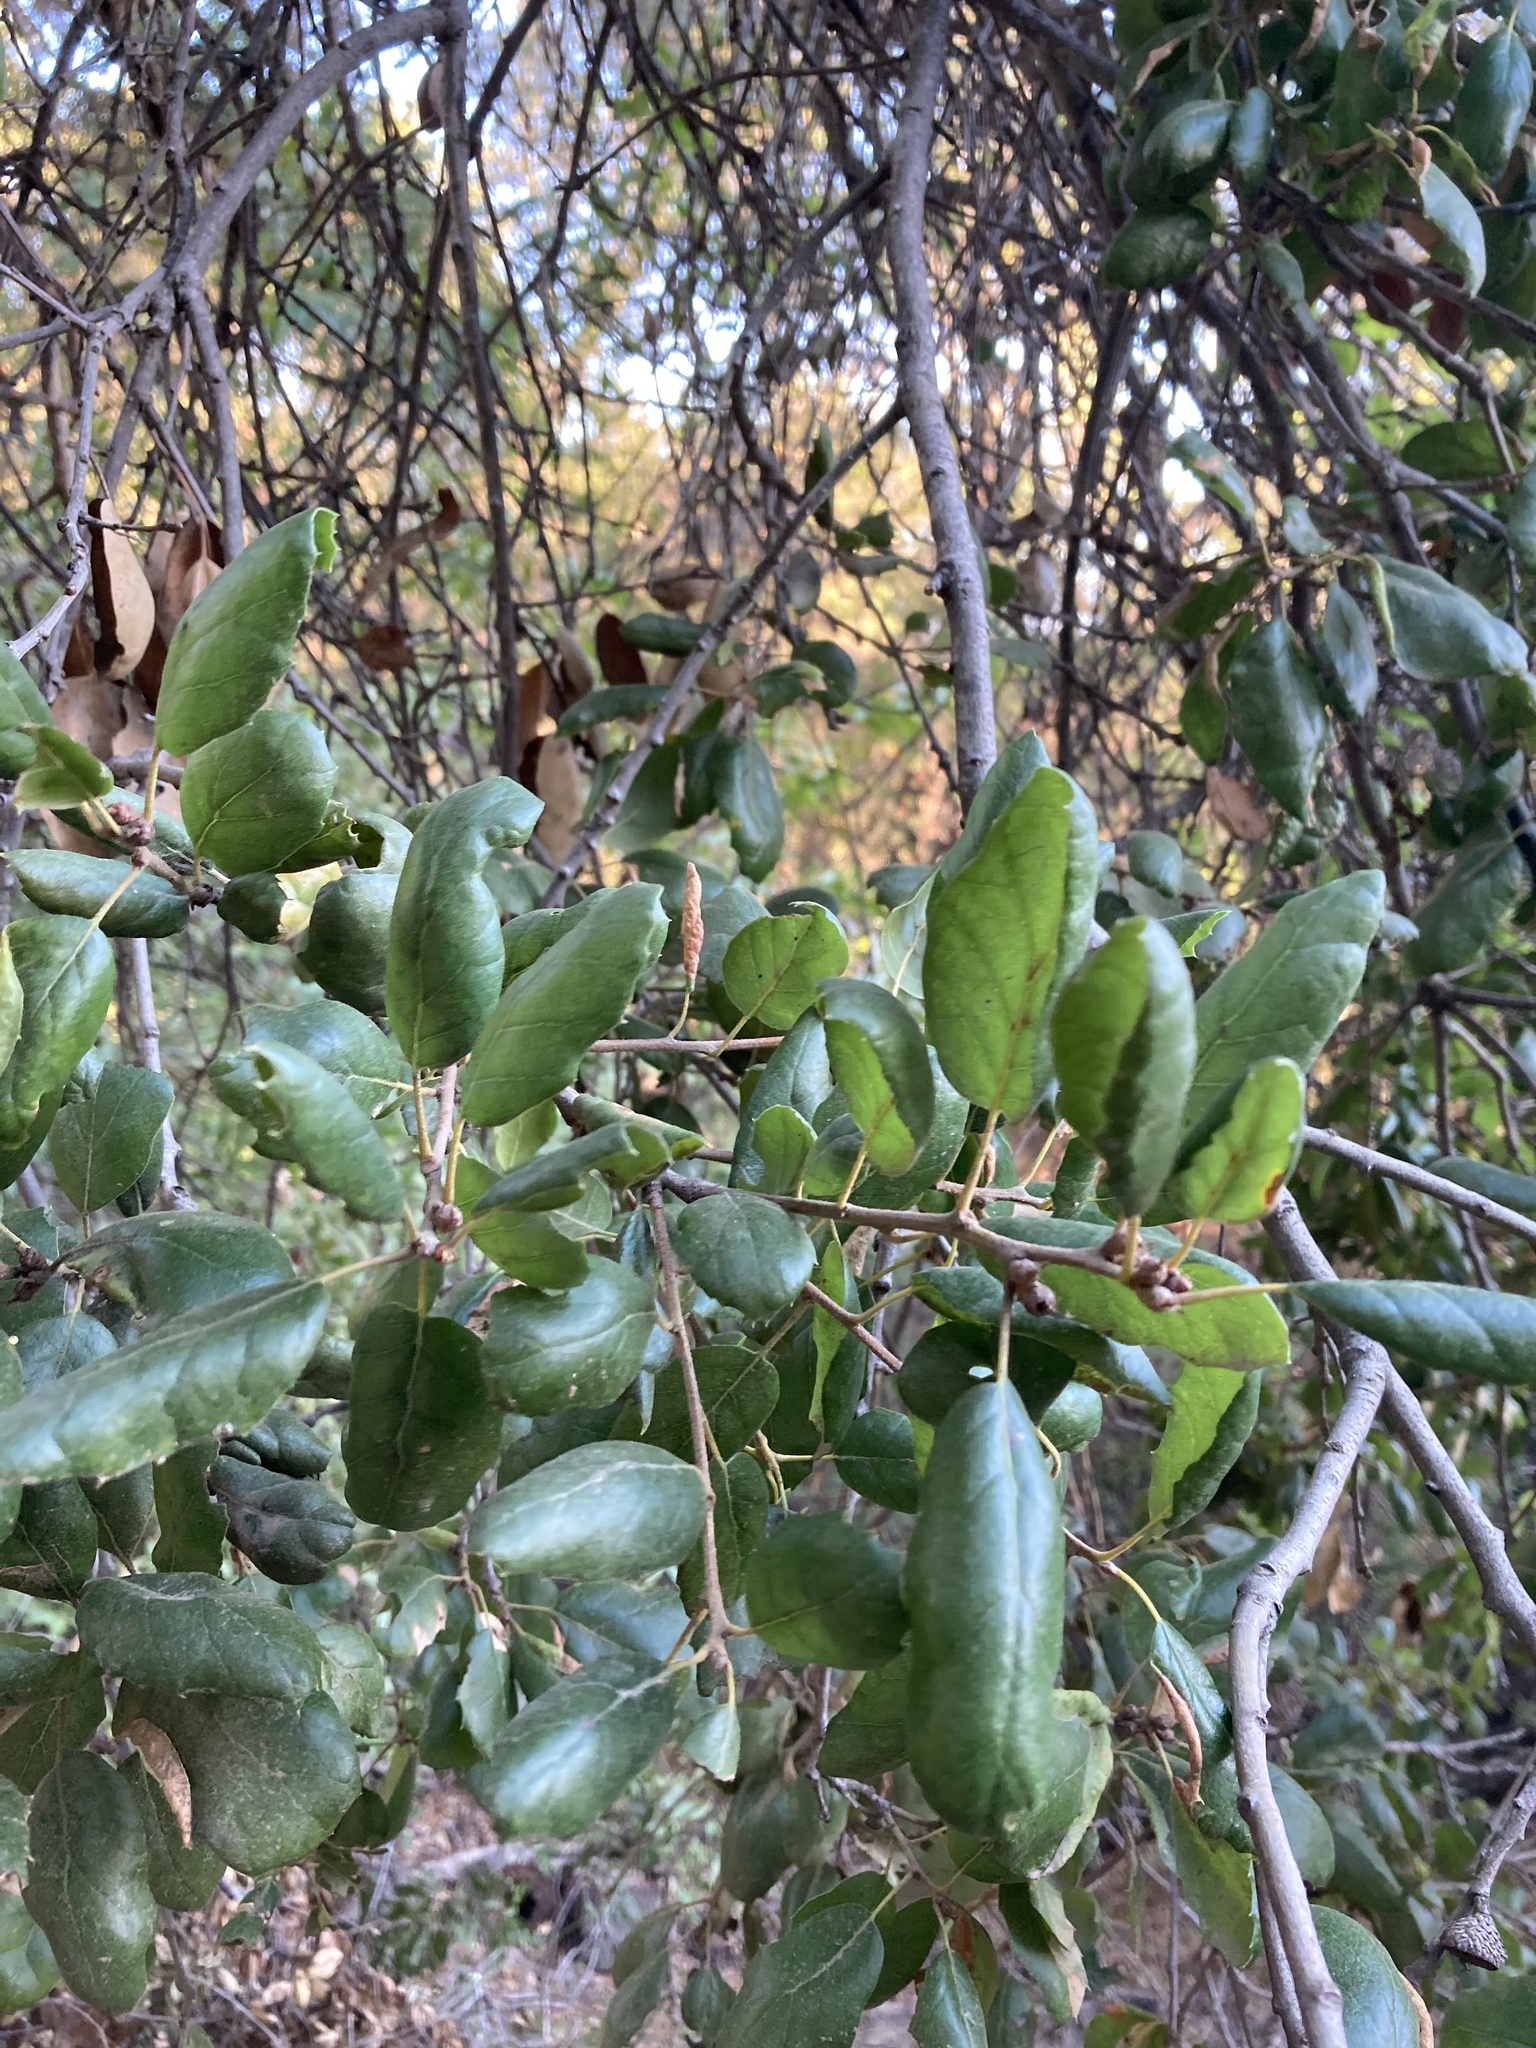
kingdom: Plantae
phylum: Tracheophyta
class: Magnoliopsida
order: Fagales
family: Fagaceae
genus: Quercus
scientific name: Quercus agrifolia
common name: California live oak
